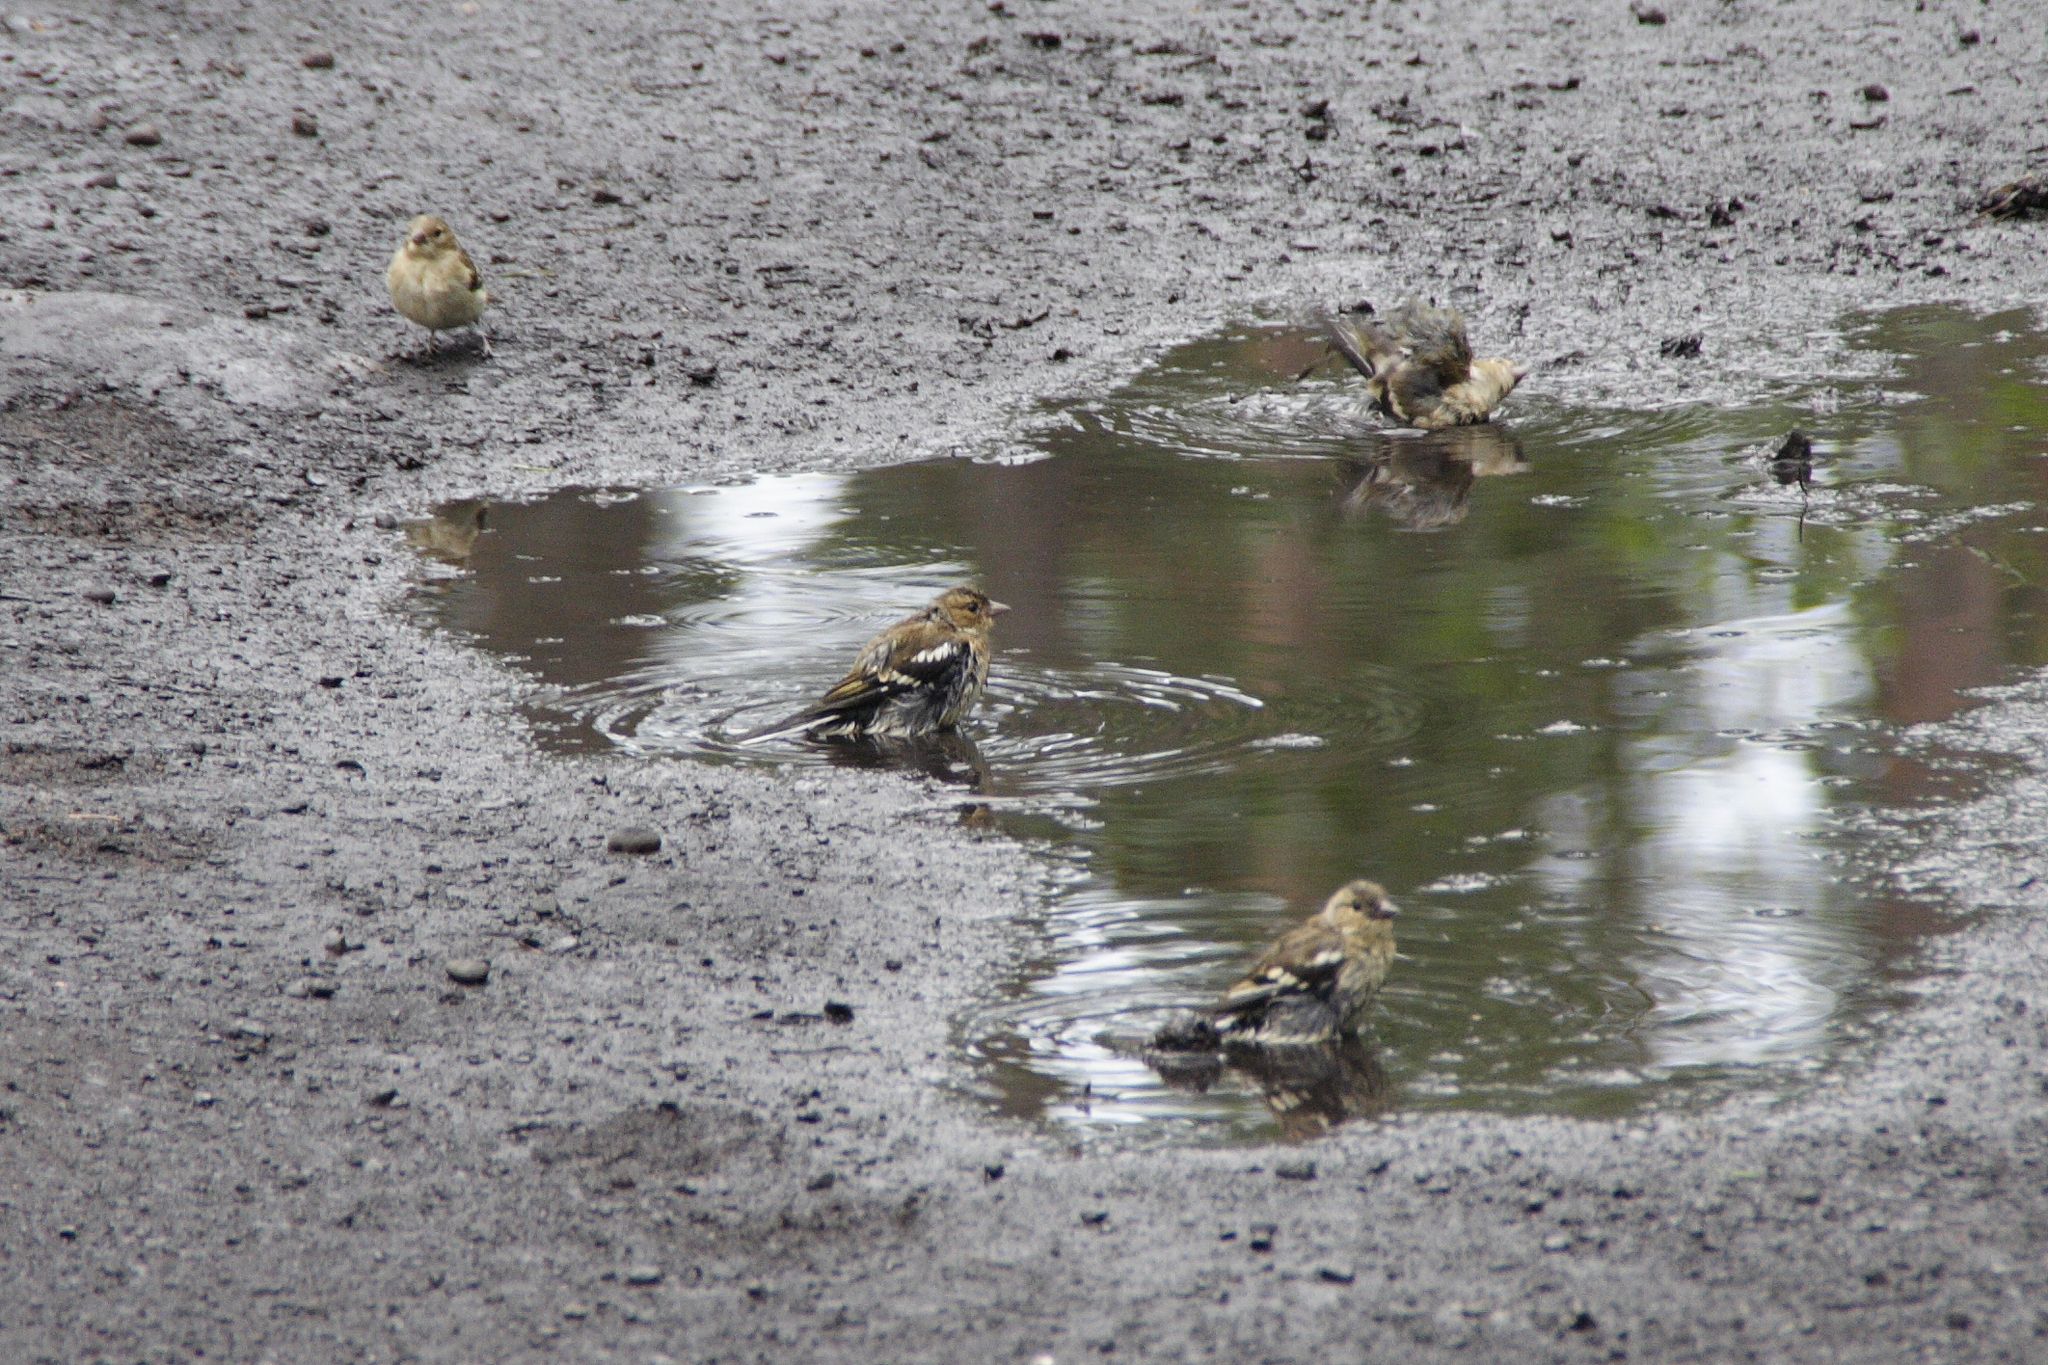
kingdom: Animalia
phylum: Chordata
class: Aves
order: Passeriformes
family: Fringillidae
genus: Fringilla
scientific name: Fringilla coelebs
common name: Common chaffinch
